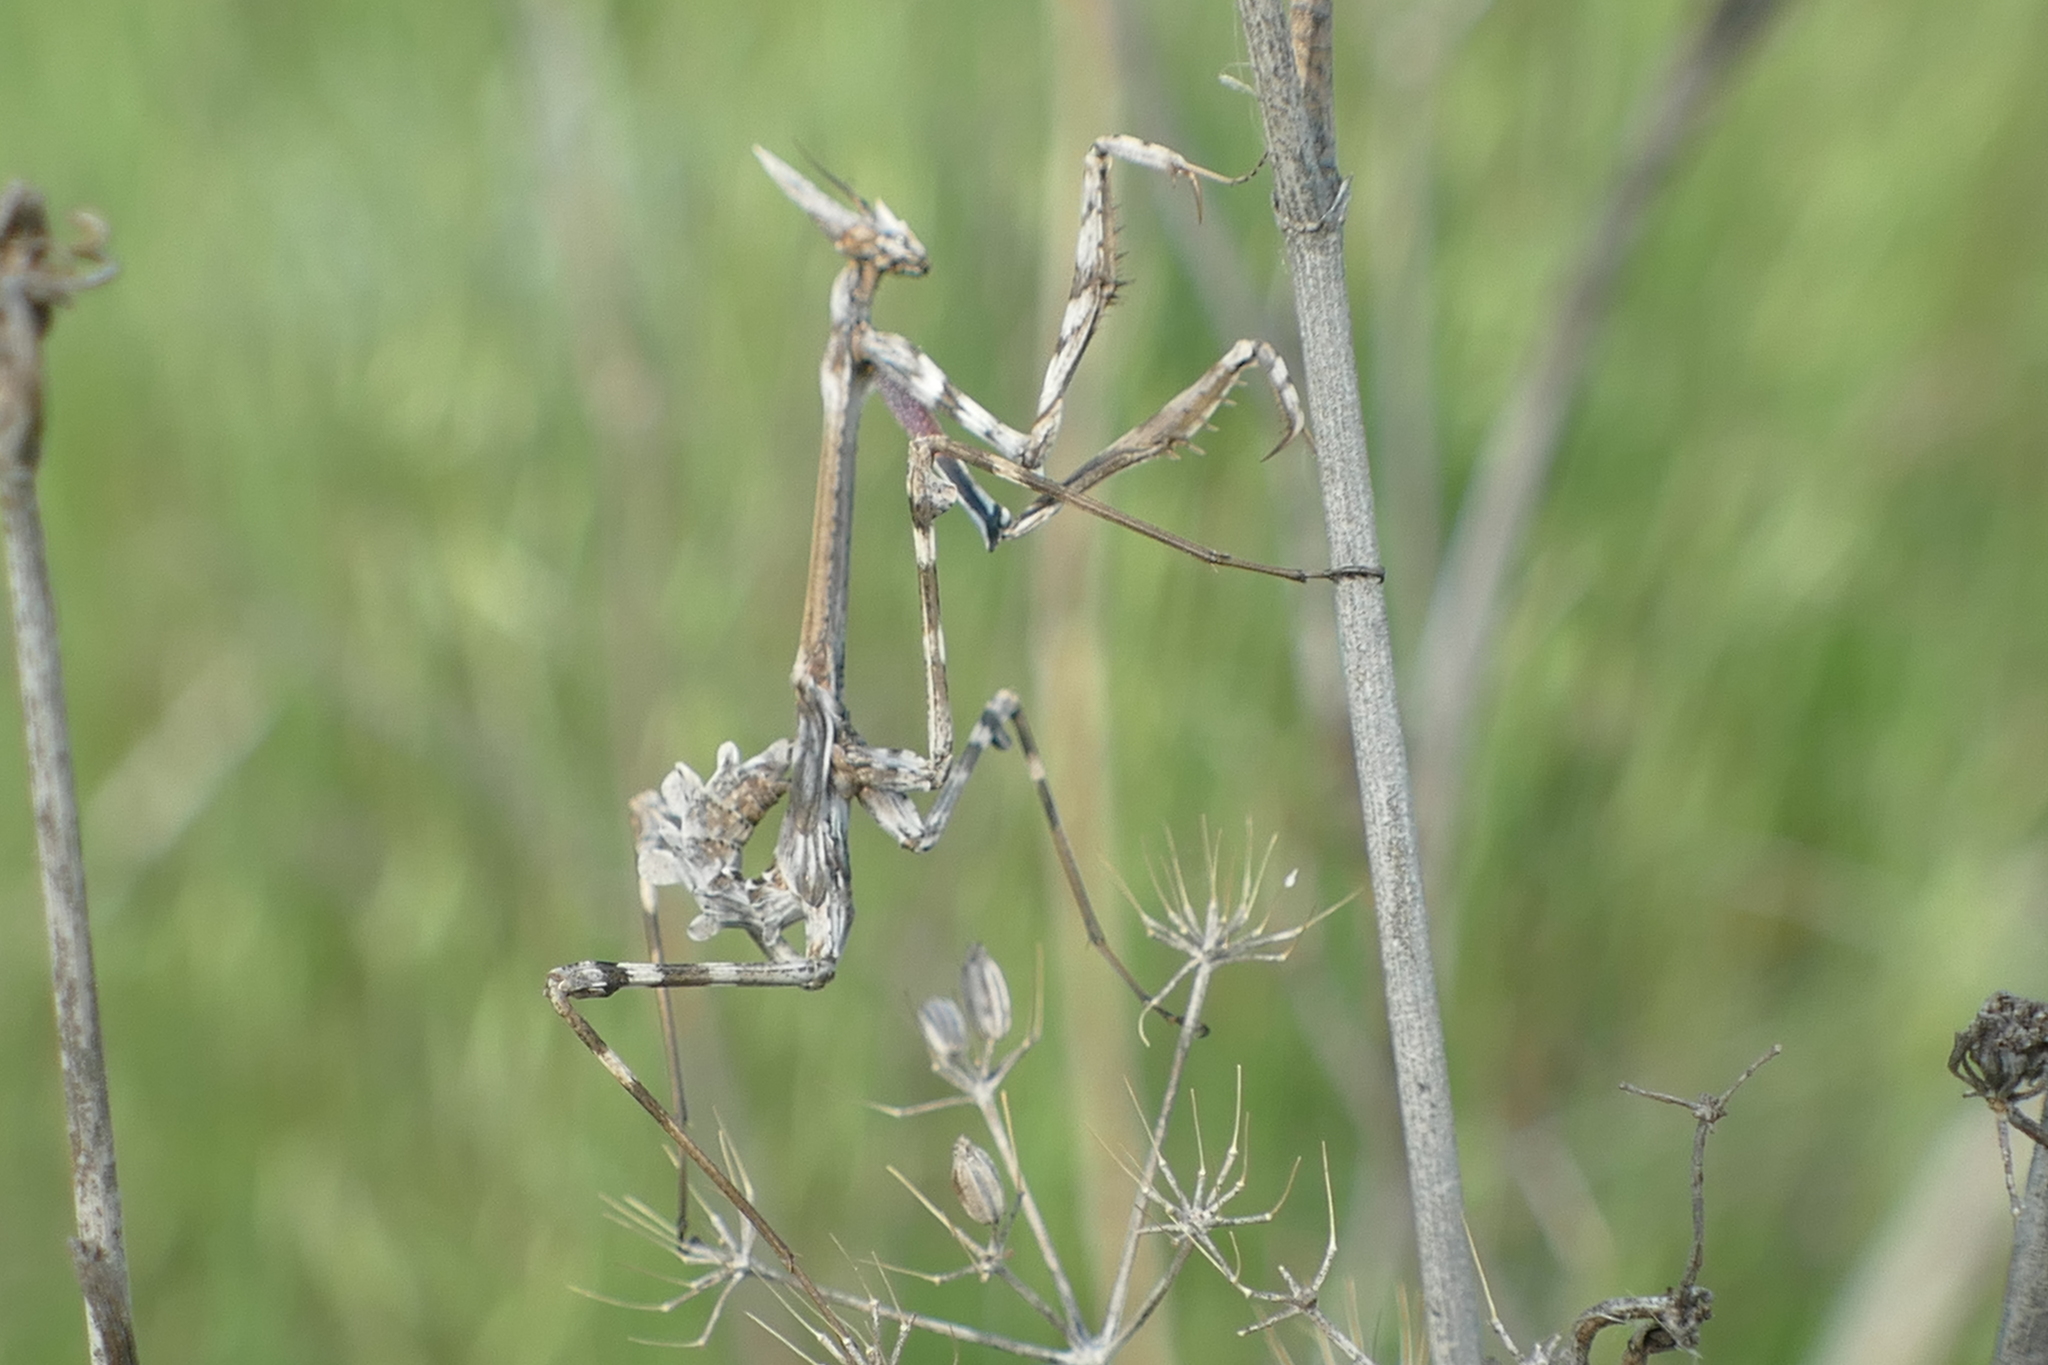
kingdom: Animalia
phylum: Arthropoda
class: Insecta
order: Mantodea
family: Empusidae
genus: Empusa
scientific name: Empusa pennata
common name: Conehead mantis
